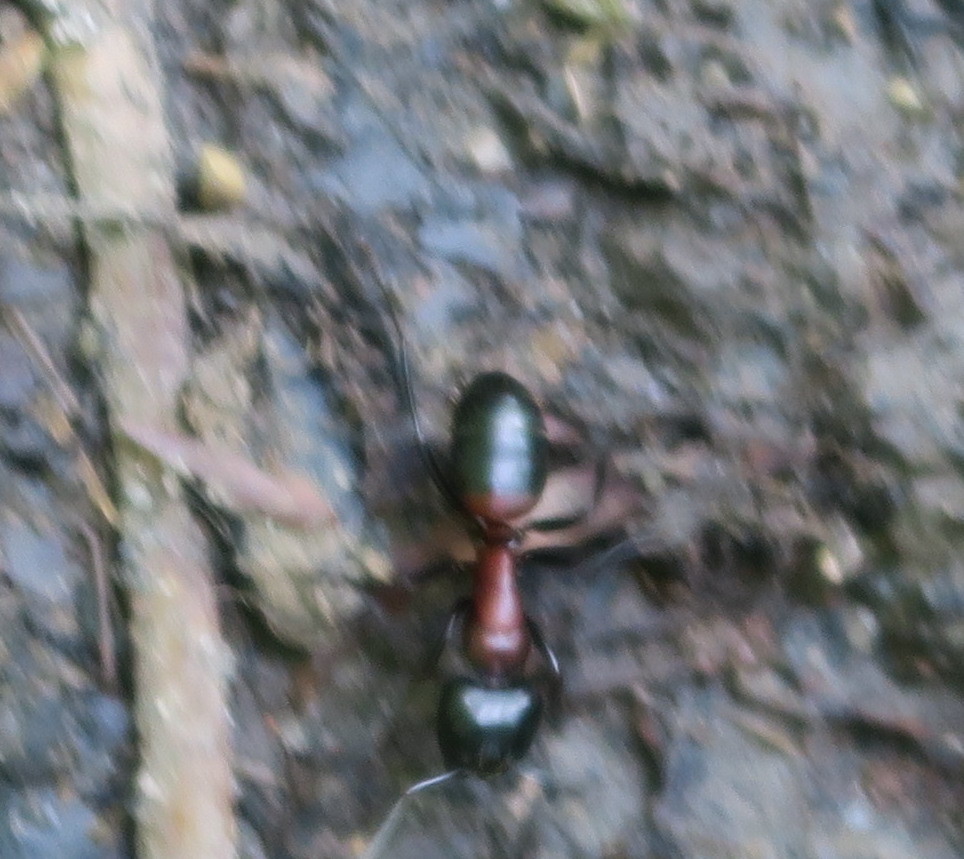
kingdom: Animalia
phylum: Arthropoda
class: Insecta
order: Hymenoptera
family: Formicidae
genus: Camponotus
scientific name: Camponotus obscuripes
